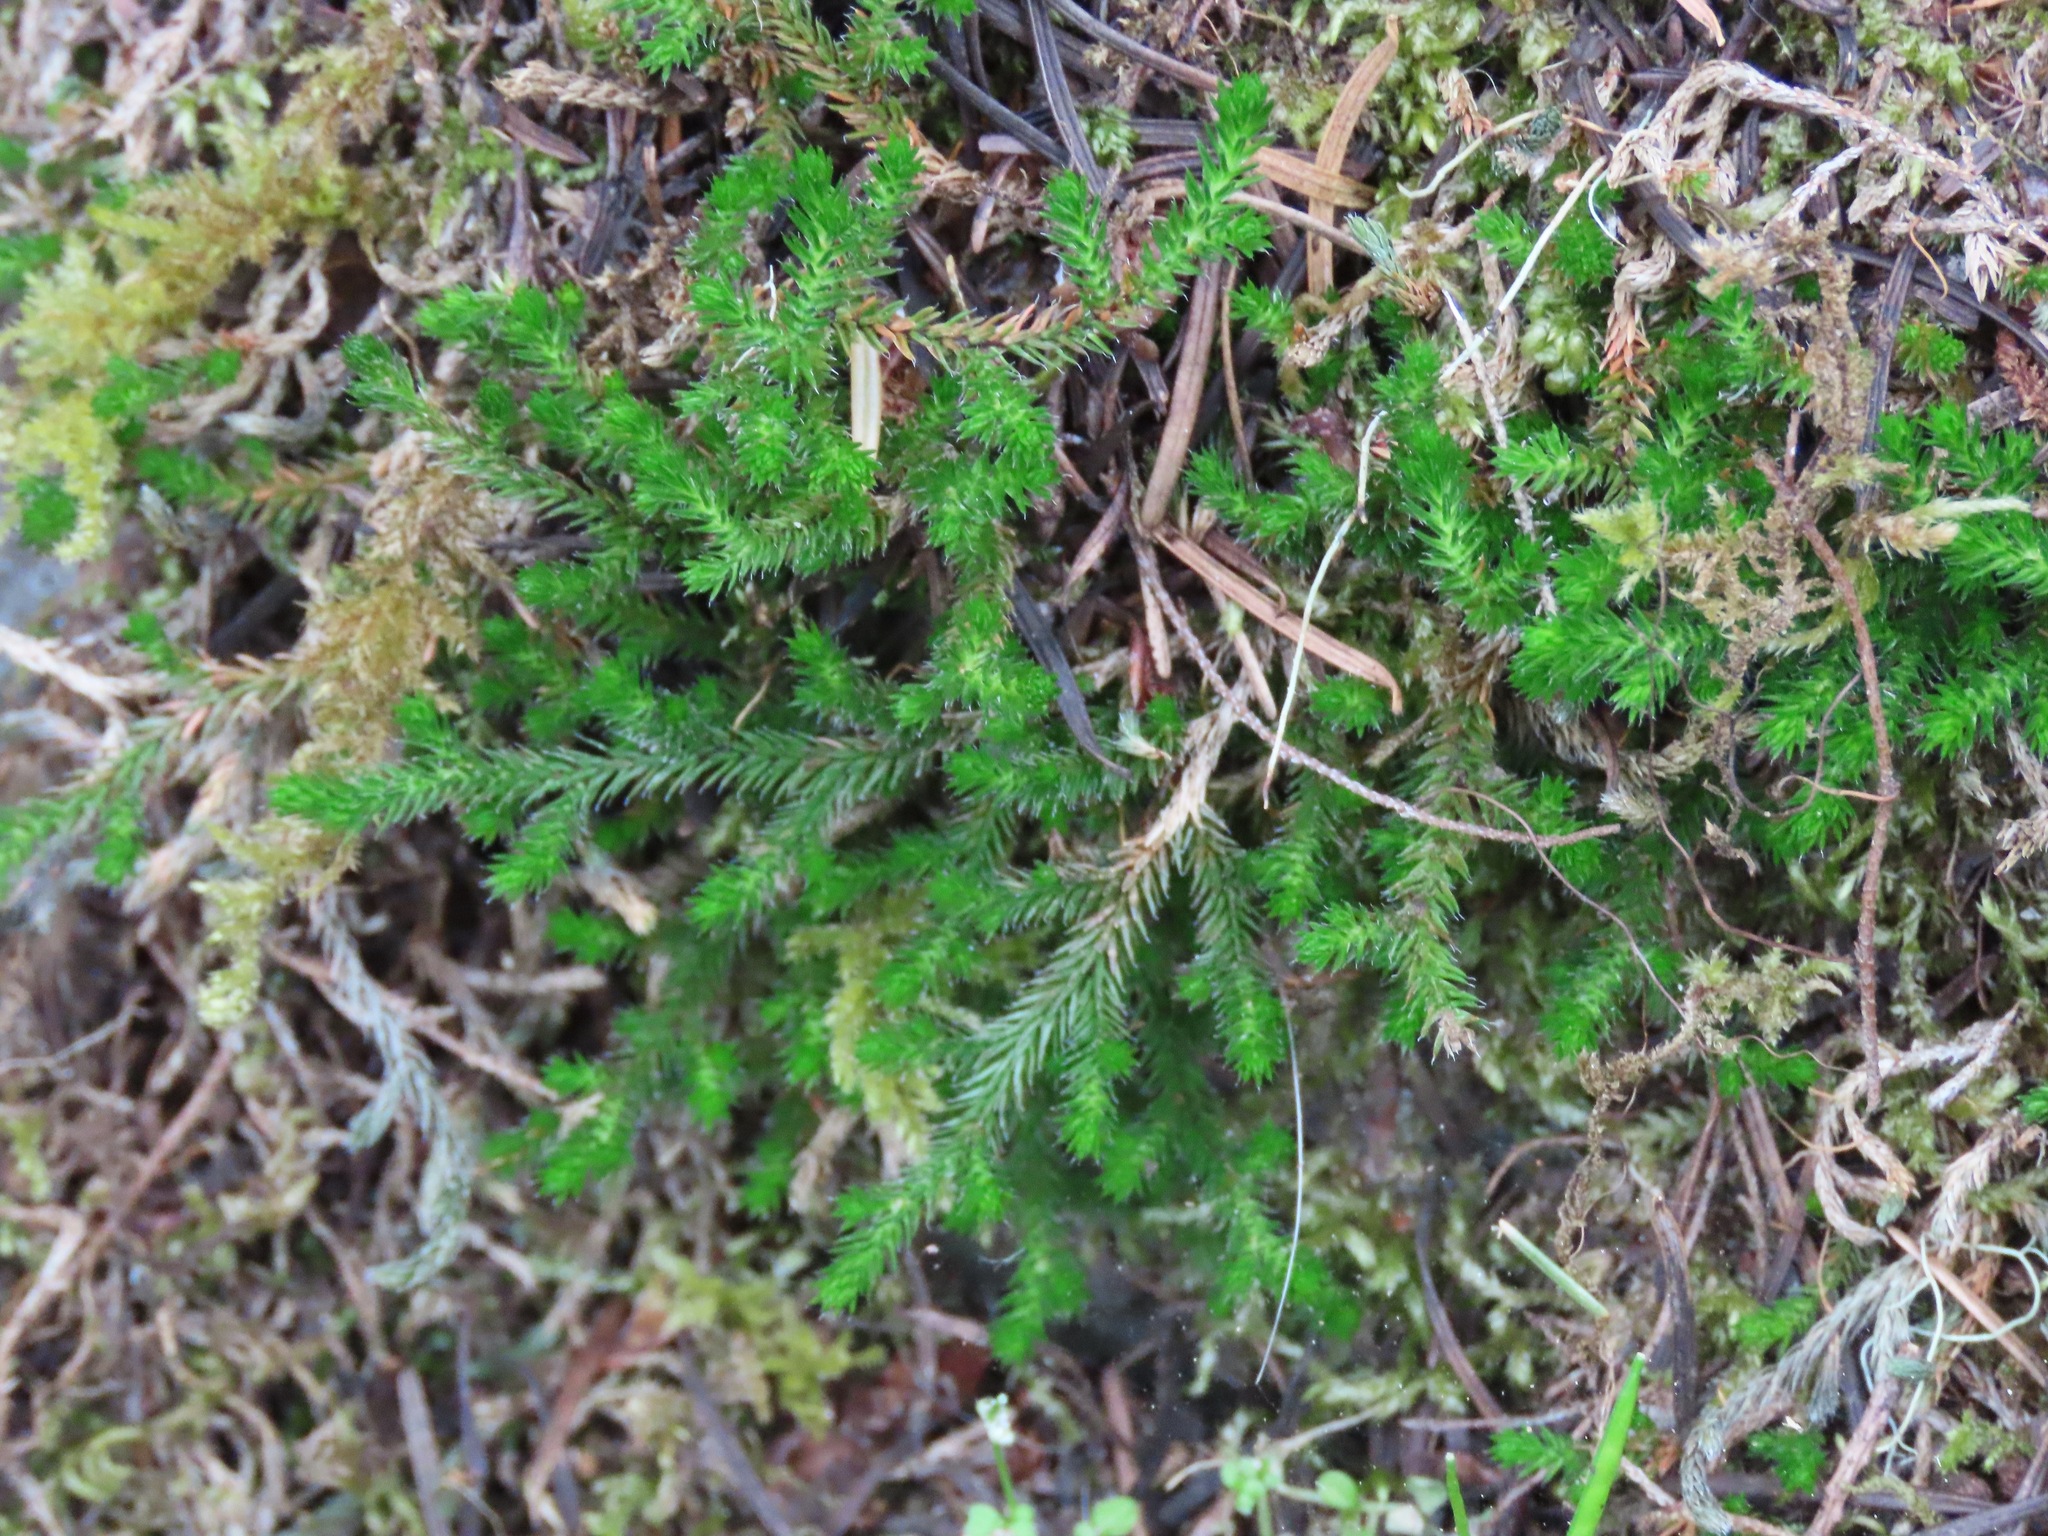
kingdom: Plantae
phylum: Tracheophyta
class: Lycopodiopsida
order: Selaginellales
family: Selaginellaceae
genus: Selaginella
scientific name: Selaginella wallacei
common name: Wallace's selaginella
